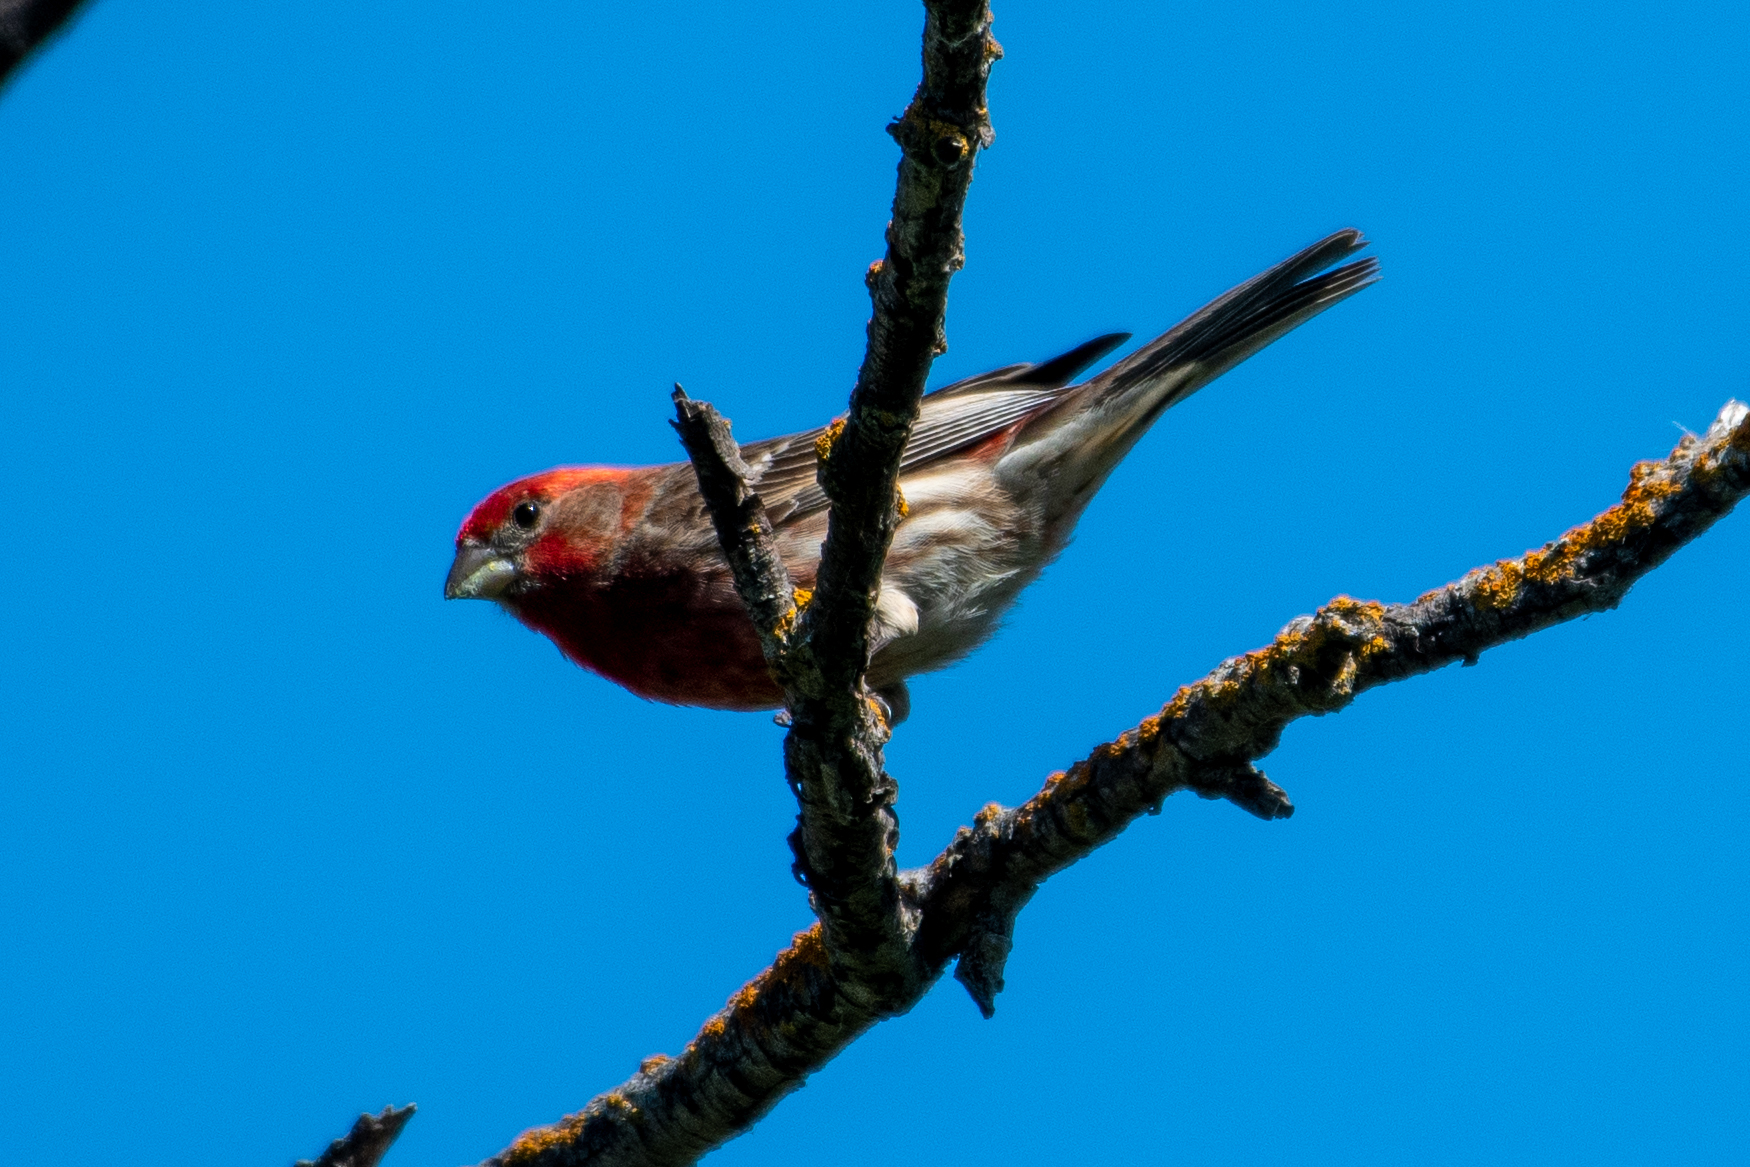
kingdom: Animalia
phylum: Chordata
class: Aves
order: Passeriformes
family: Fringillidae
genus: Haemorhous
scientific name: Haemorhous mexicanus
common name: House finch
